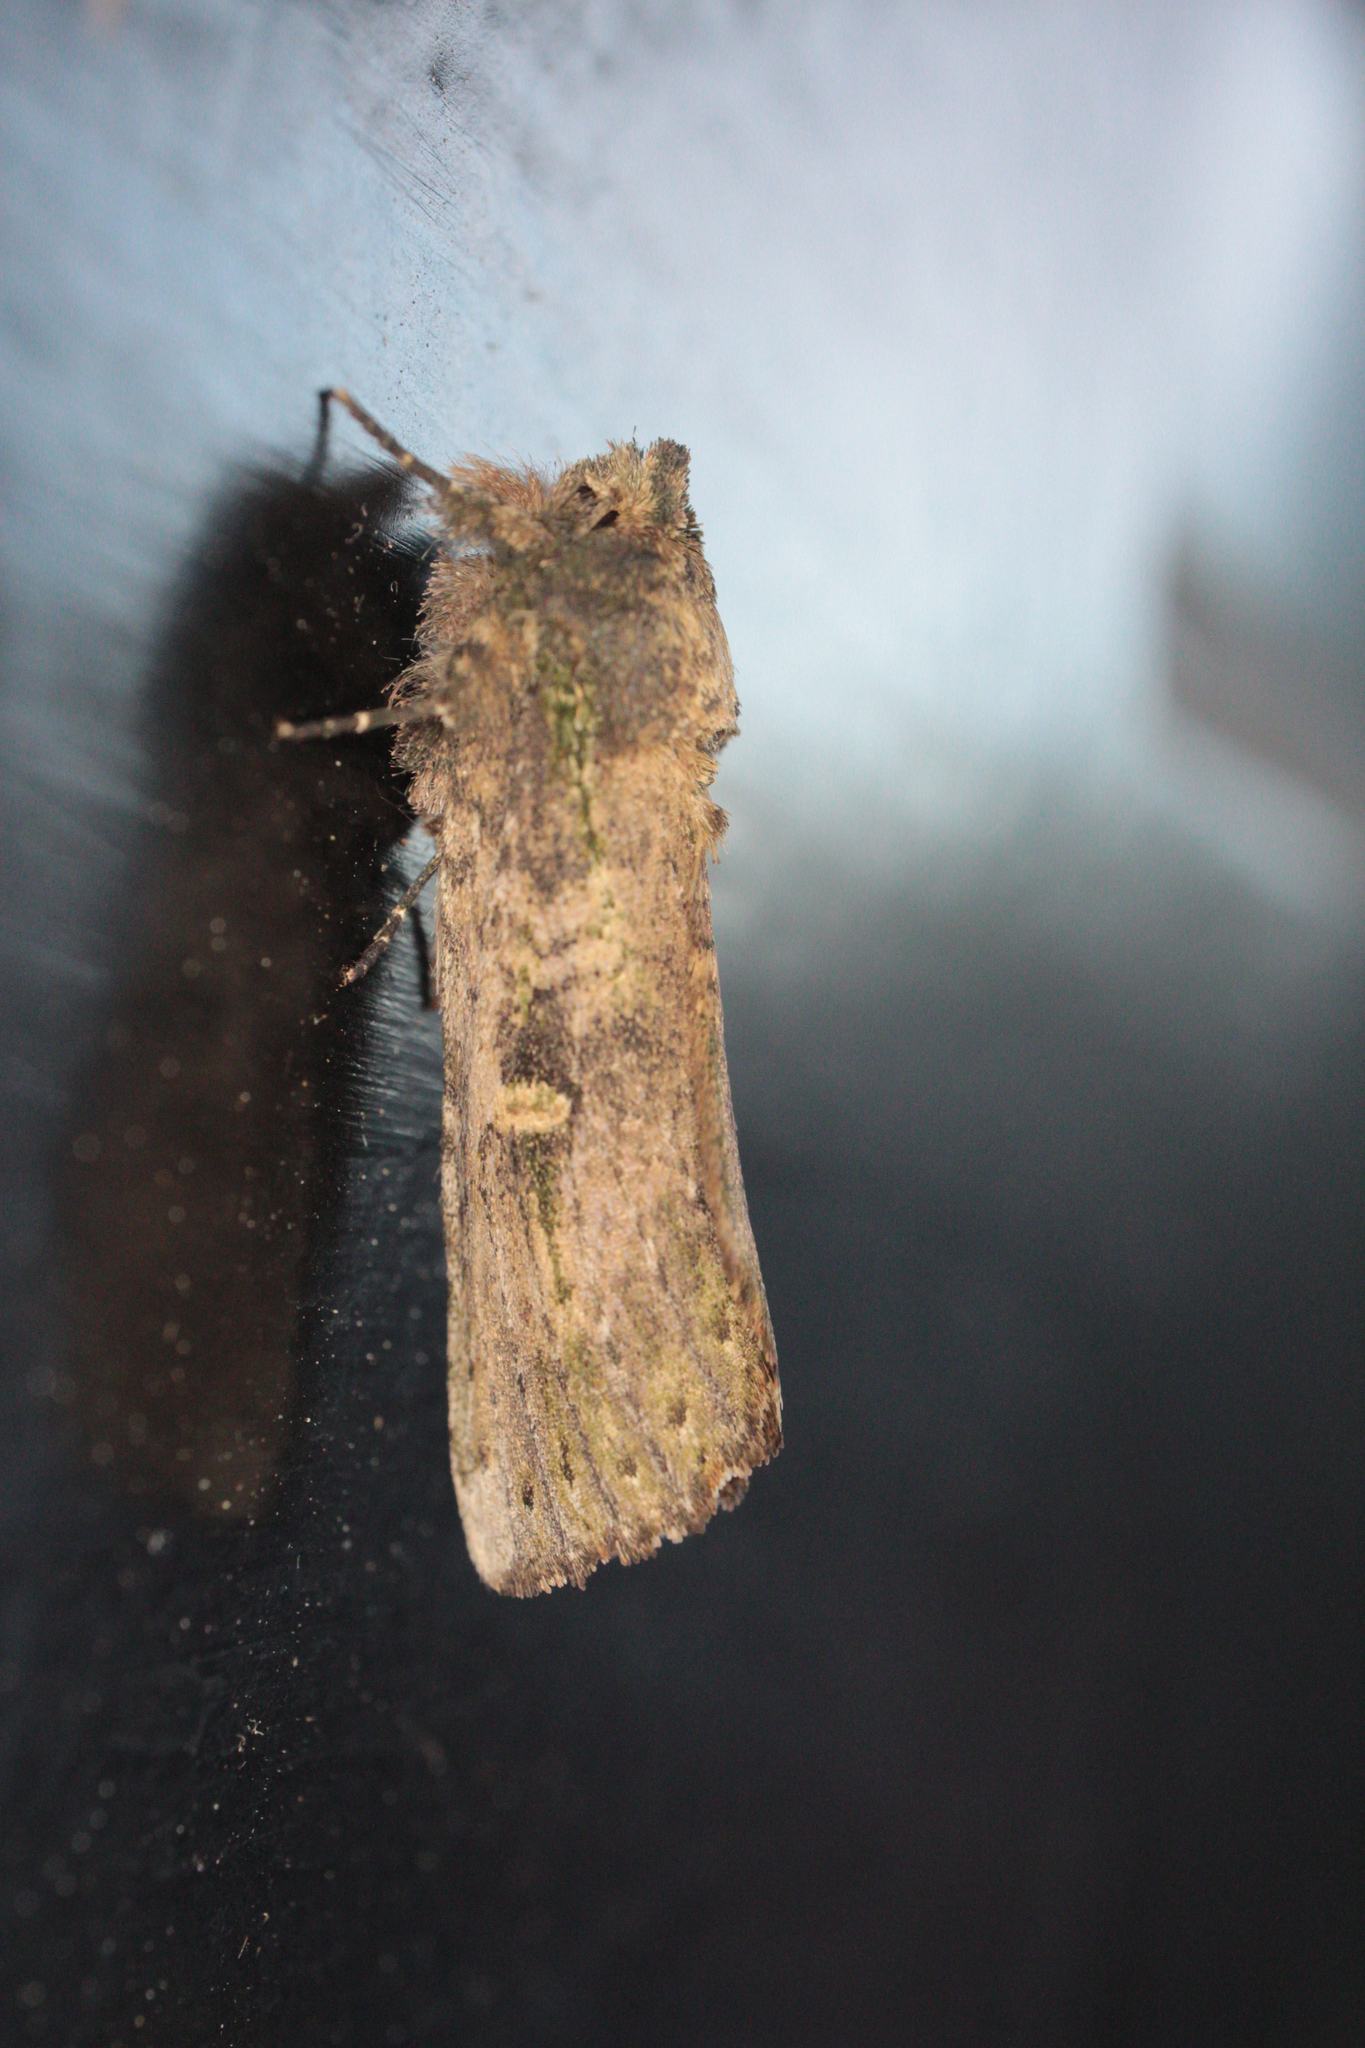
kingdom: Animalia
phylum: Arthropoda
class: Insecta
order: Lepidoptera
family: Notodontidae
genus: Schizura
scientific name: Schizura ipomaeae
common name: Morning-glory prominent
